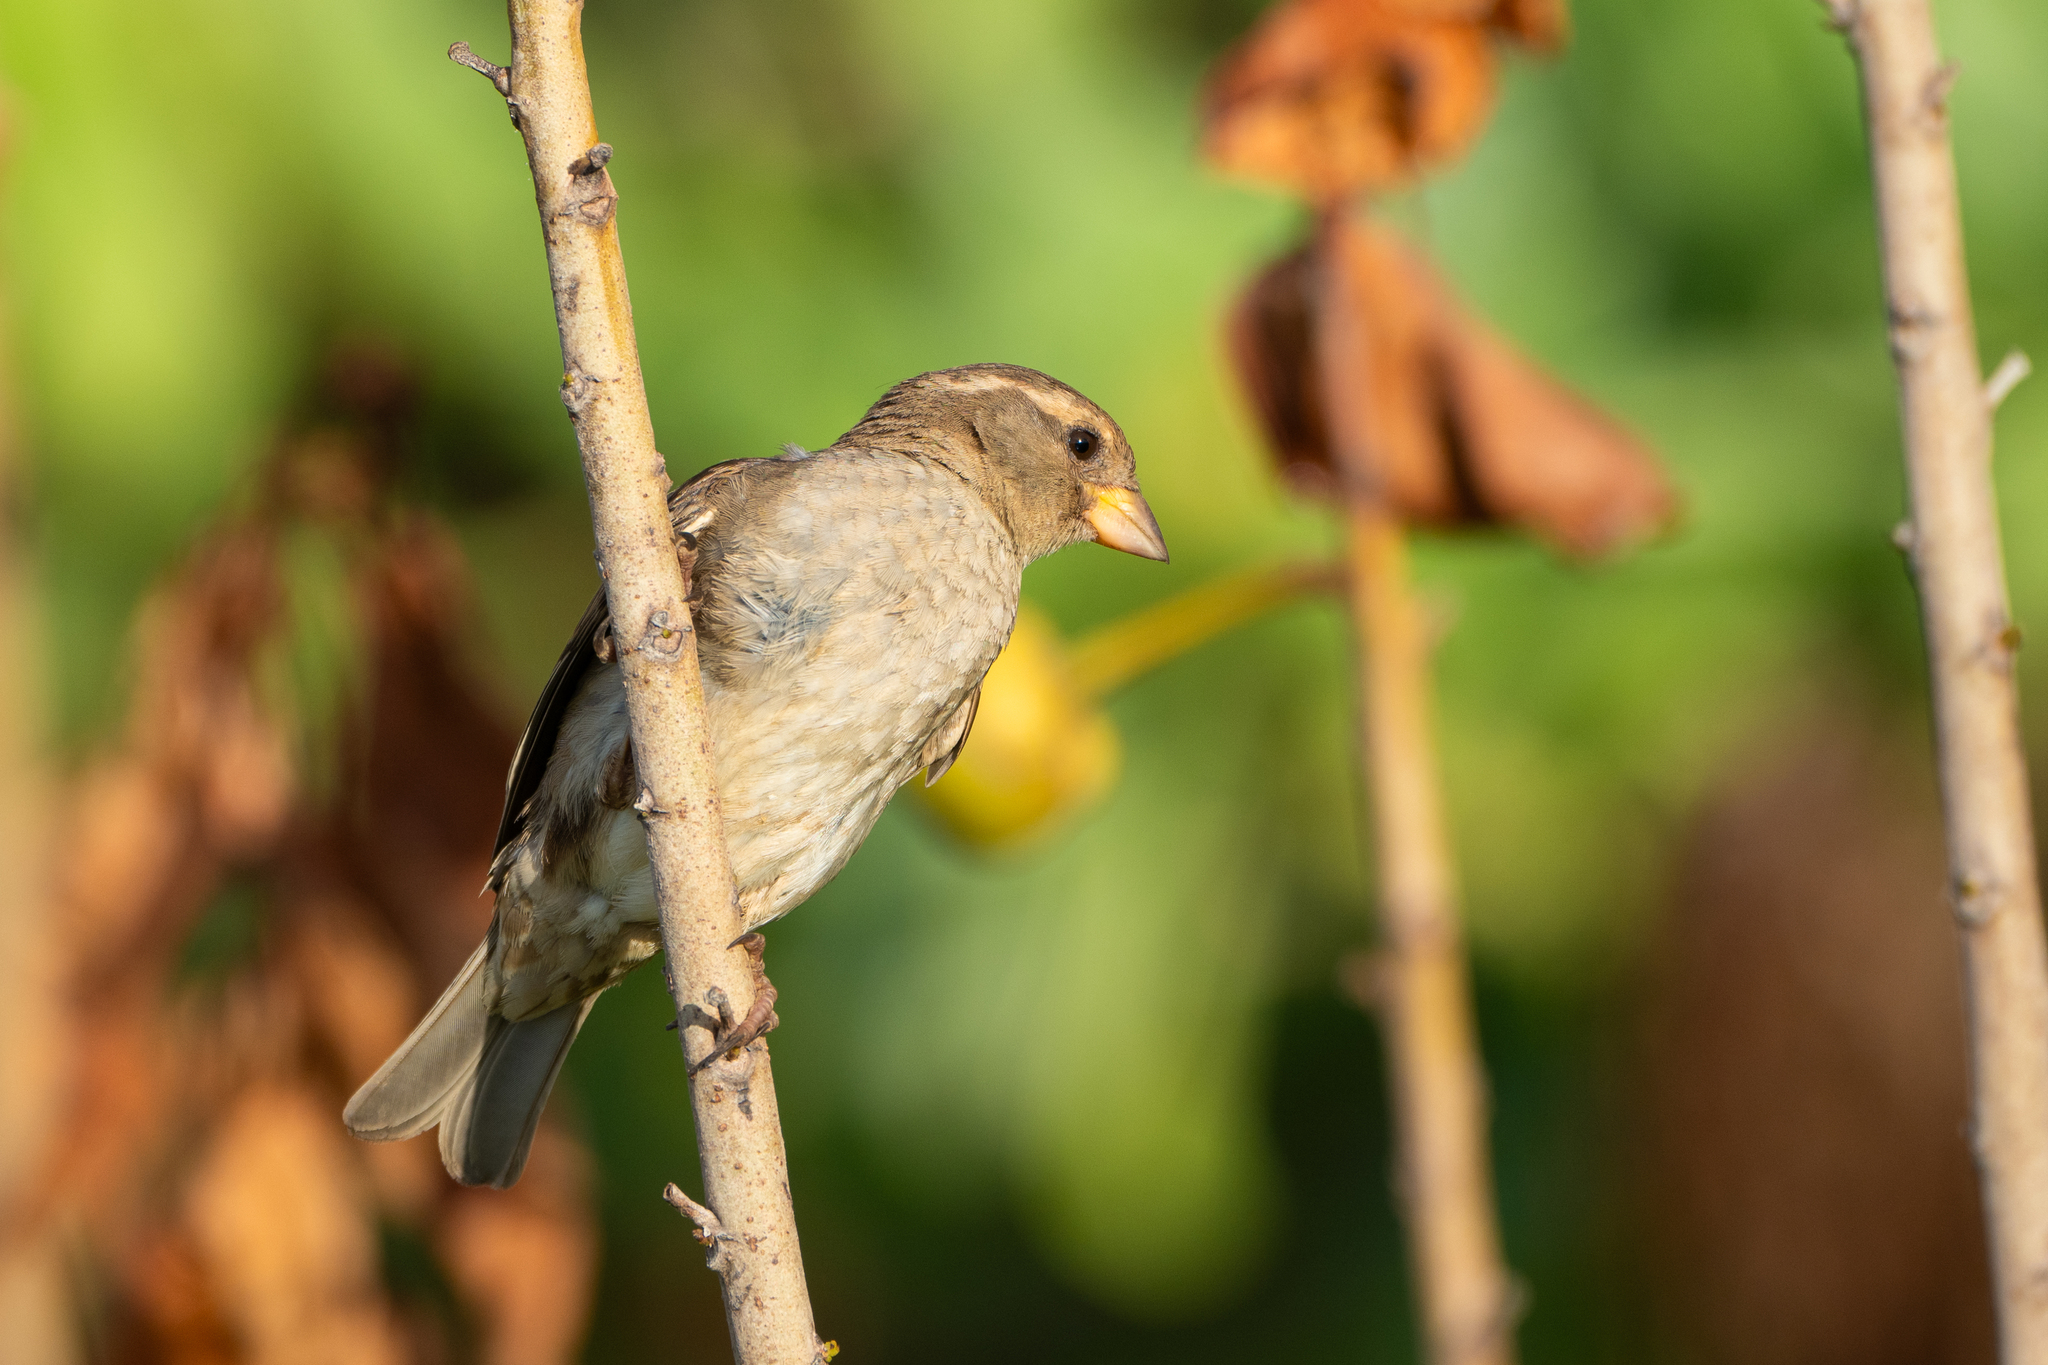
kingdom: Animalia
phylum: Chordata
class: Aves
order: Passeriformes
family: Passeridae
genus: Passer
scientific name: Passer domesticus
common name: House sparrow
